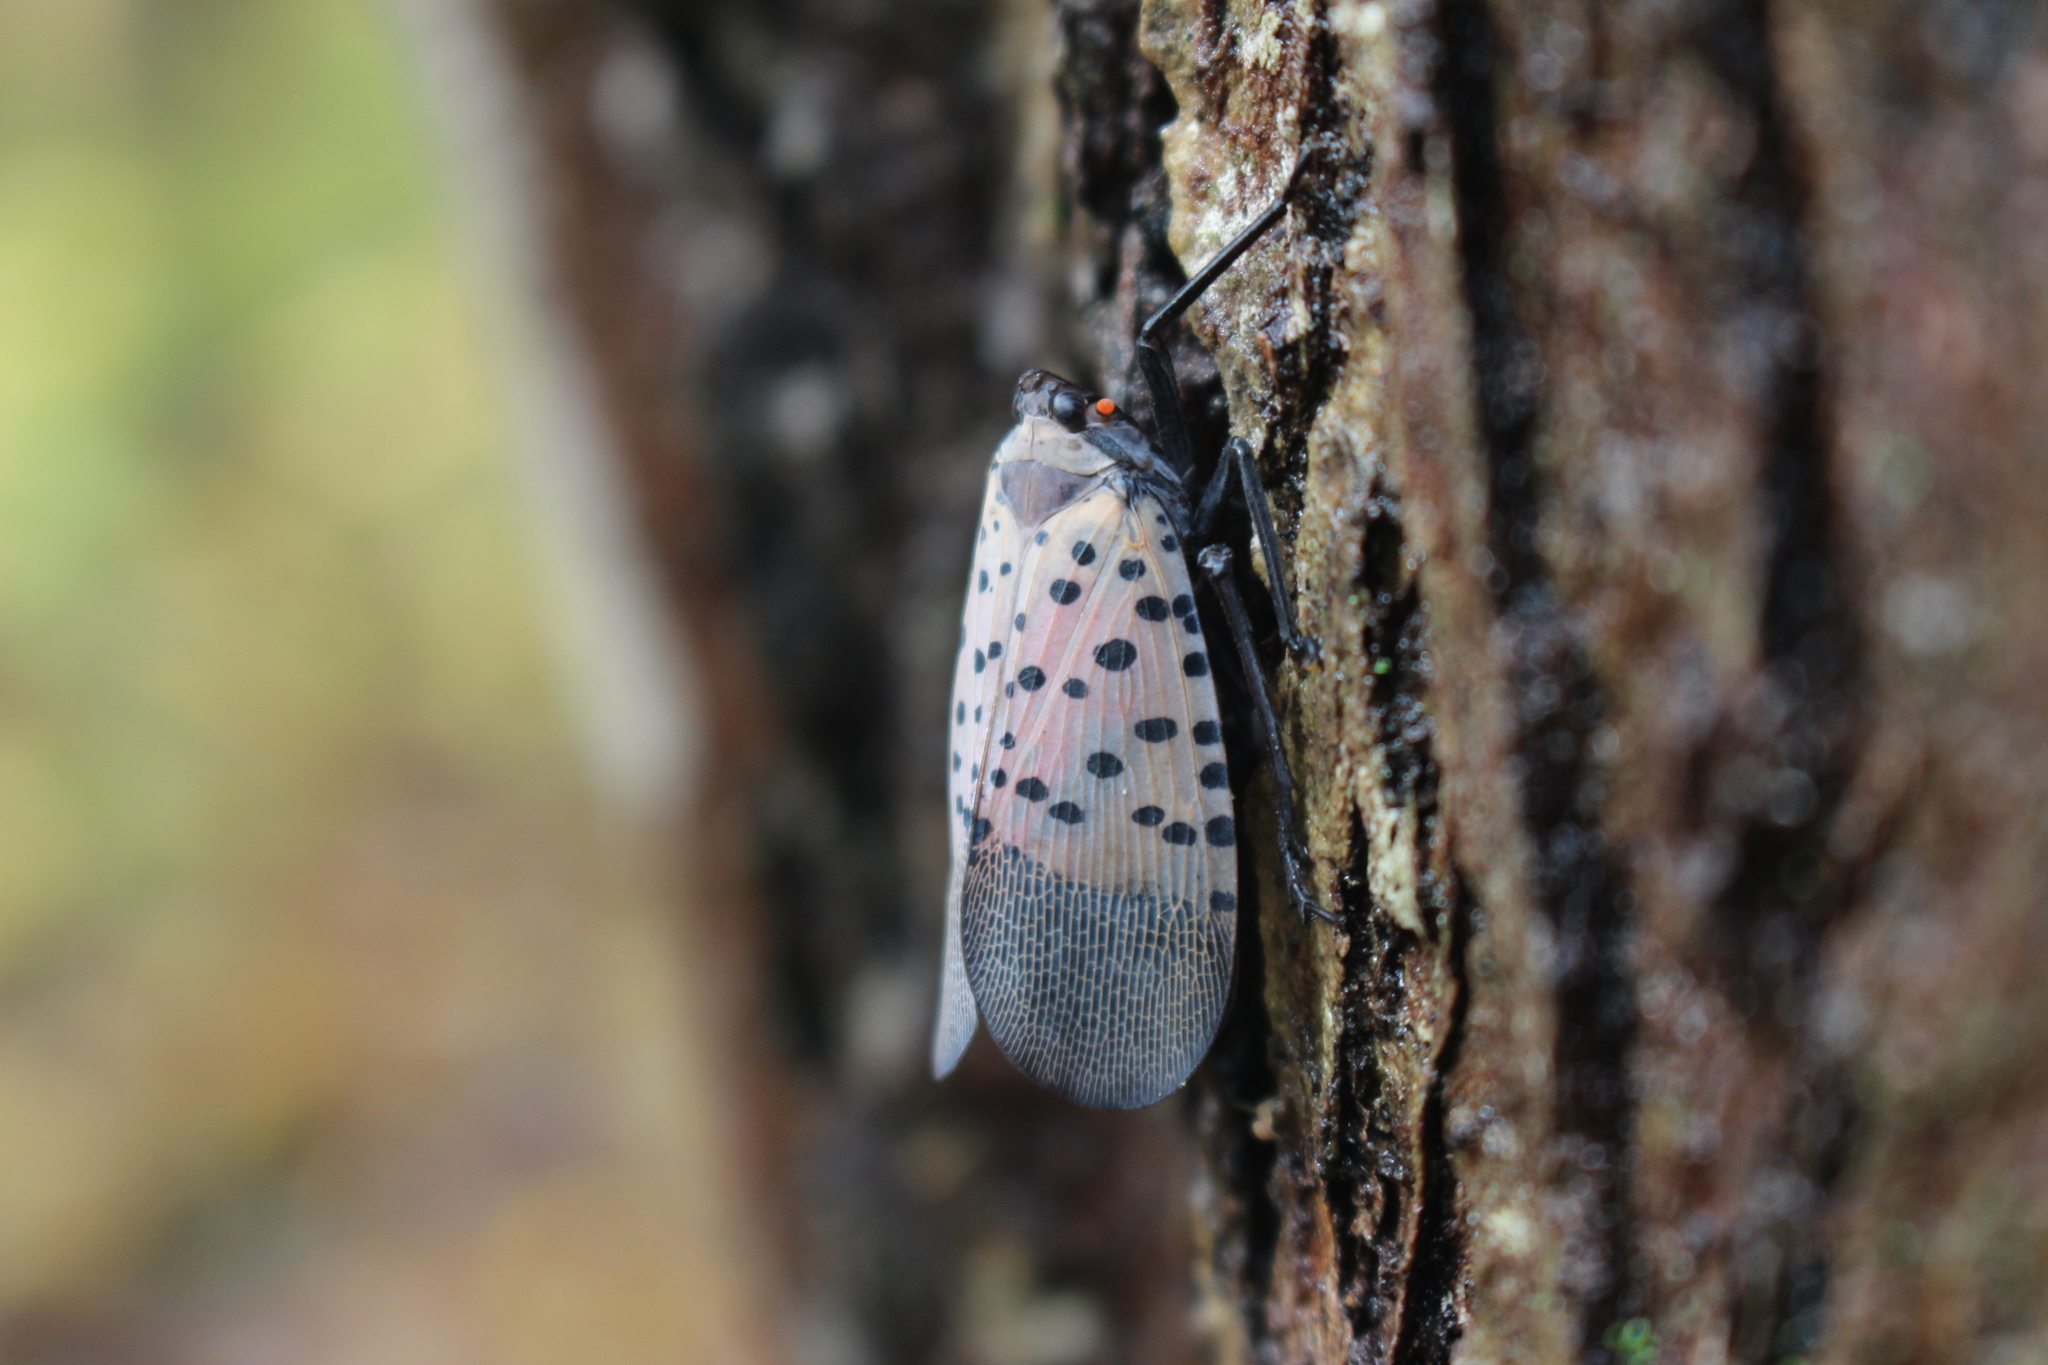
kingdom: Animalia
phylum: Arthropoda
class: Insecta
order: Hemiptera
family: Fulgoridae
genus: Lycorma
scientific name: Lycorma delicatula
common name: Spotted lanternfly
